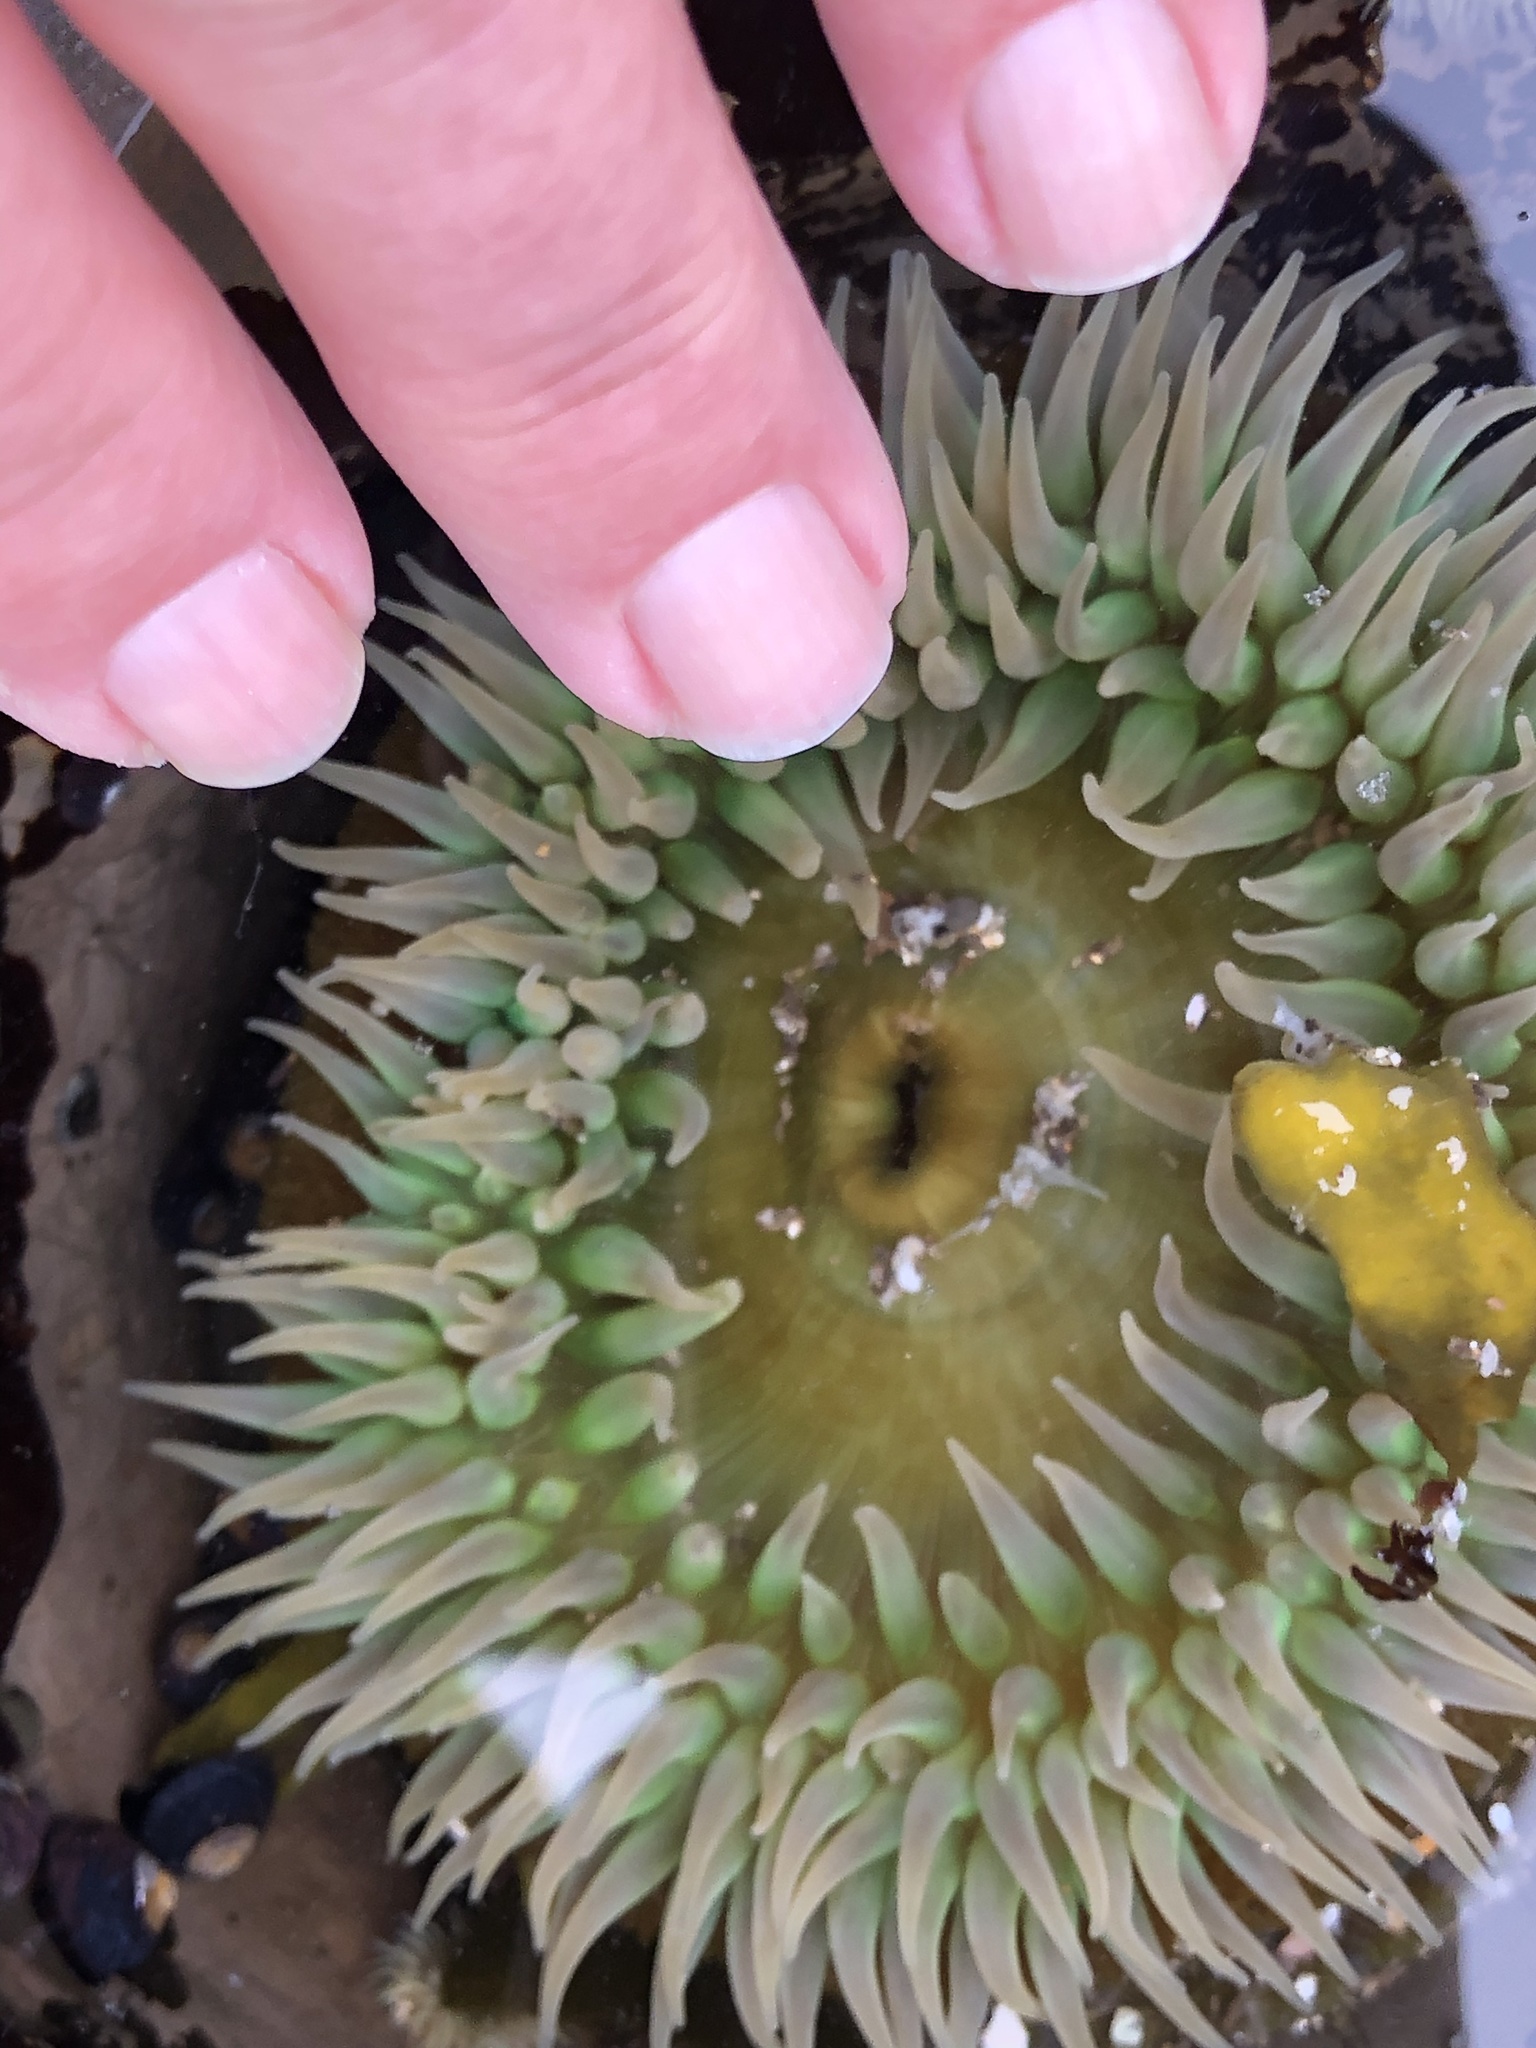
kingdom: Animalia
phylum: Cnidaria
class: Anthozoa
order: Actiniaria
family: Actiniidae
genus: Anthopleura
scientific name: Anthopleura xanthogrammica
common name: Giant green anemone
